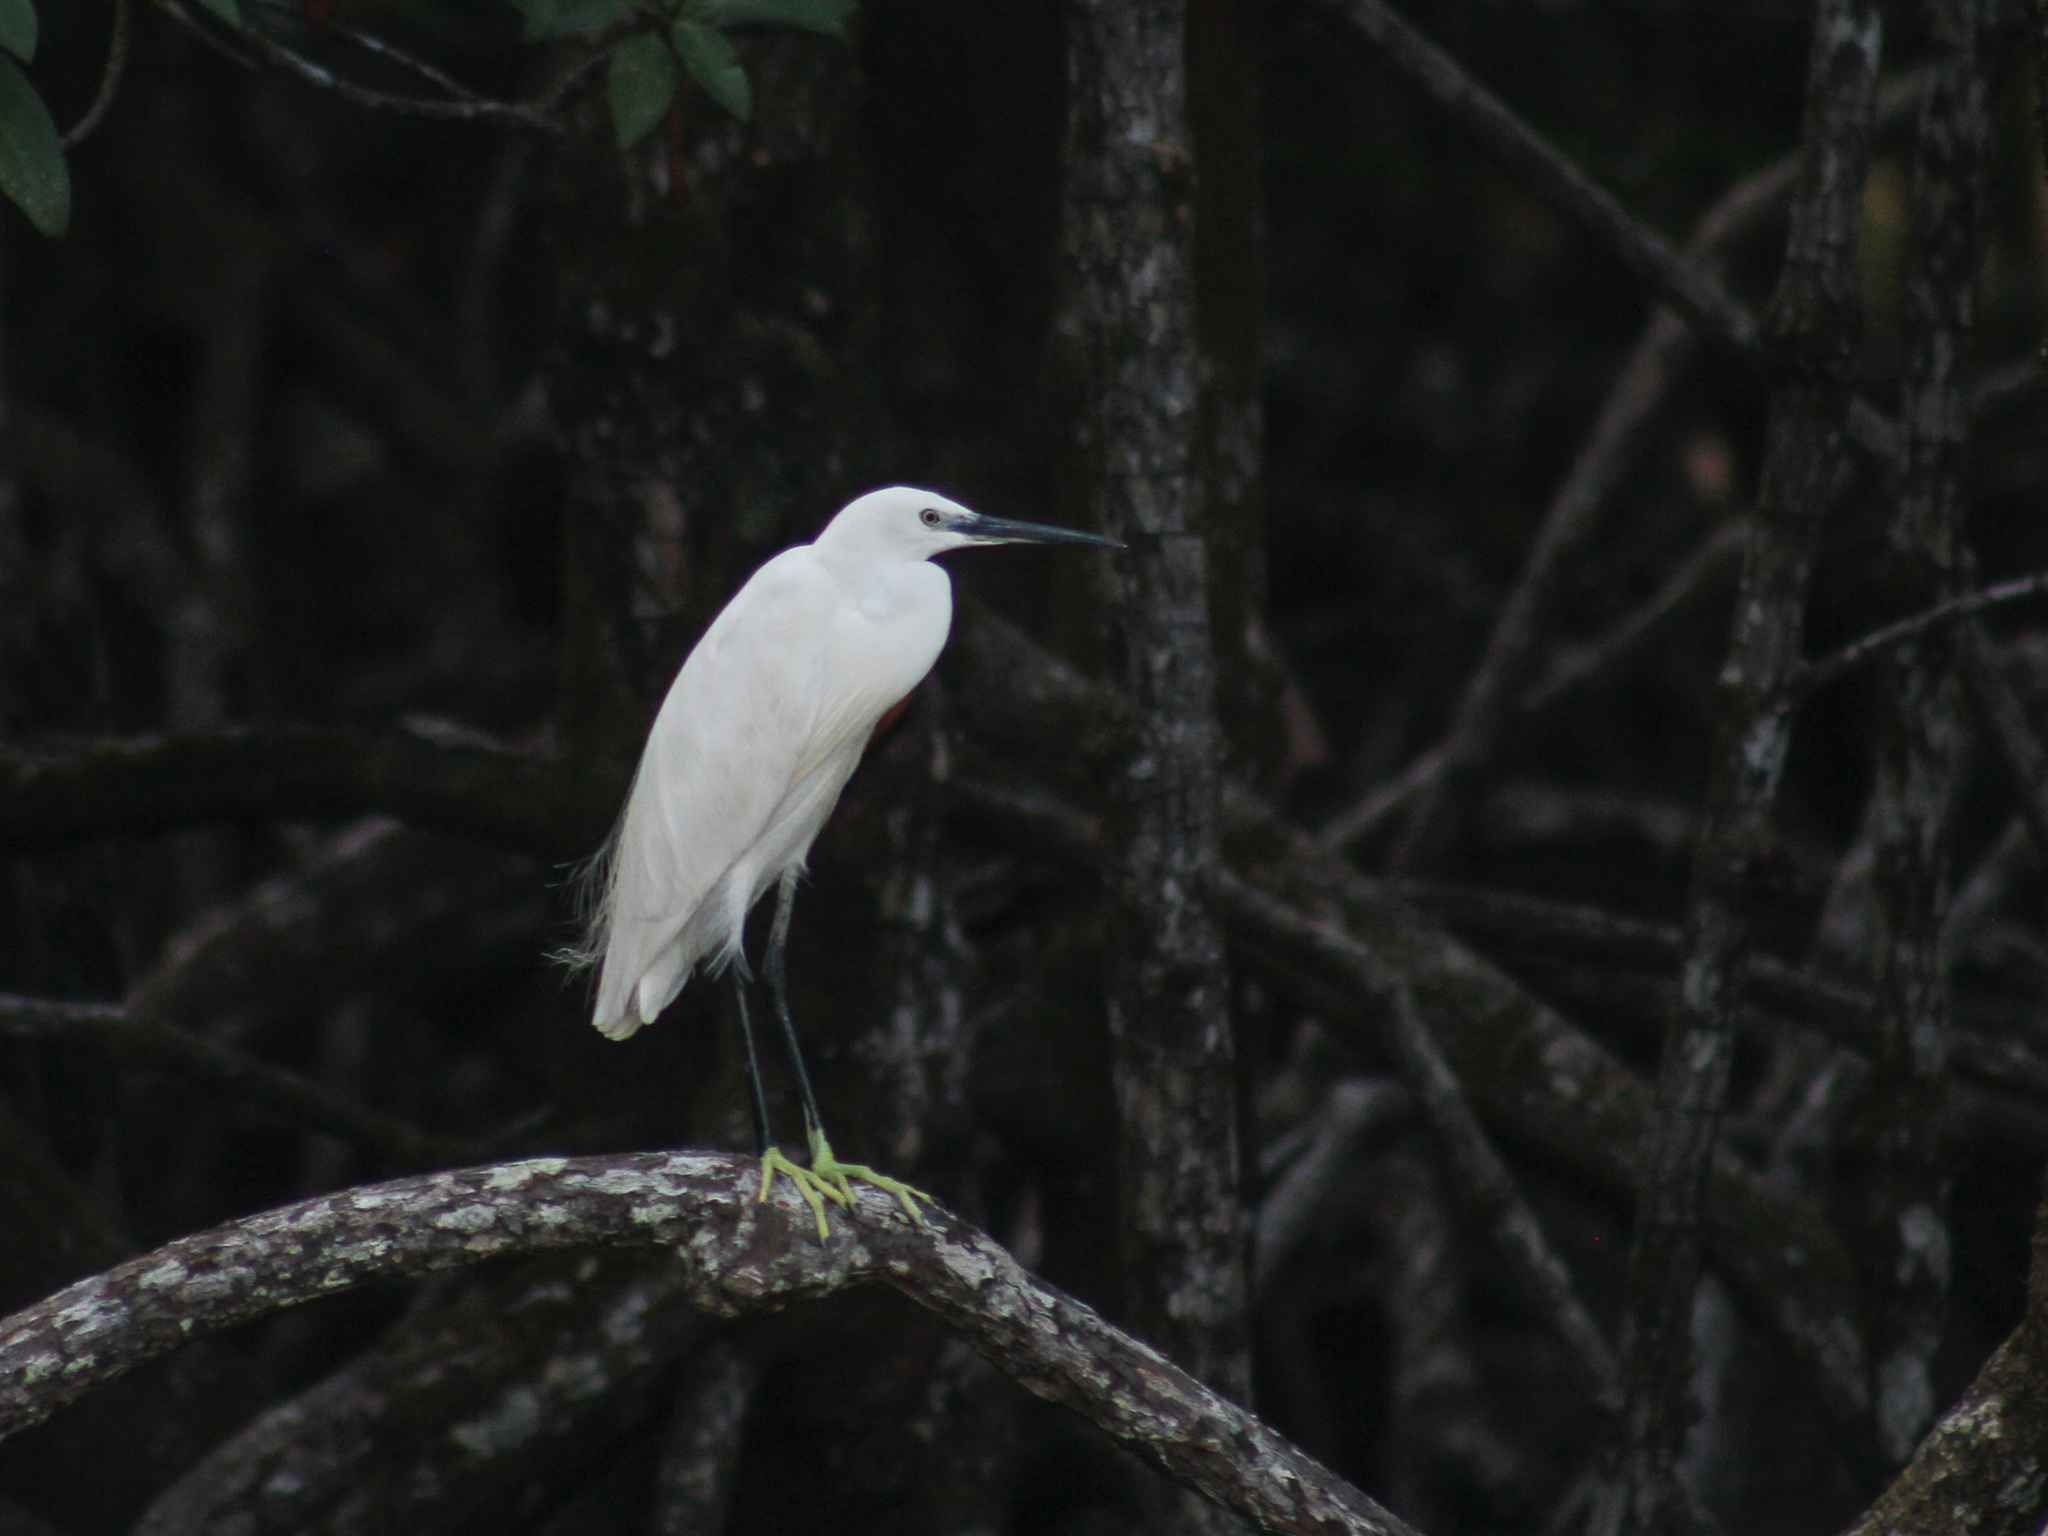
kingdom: Animalia
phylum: Chordata
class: Aves
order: Pelecaniformes
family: Ardeidae
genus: Egretta
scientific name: Egretta garzetta
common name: Little egret
